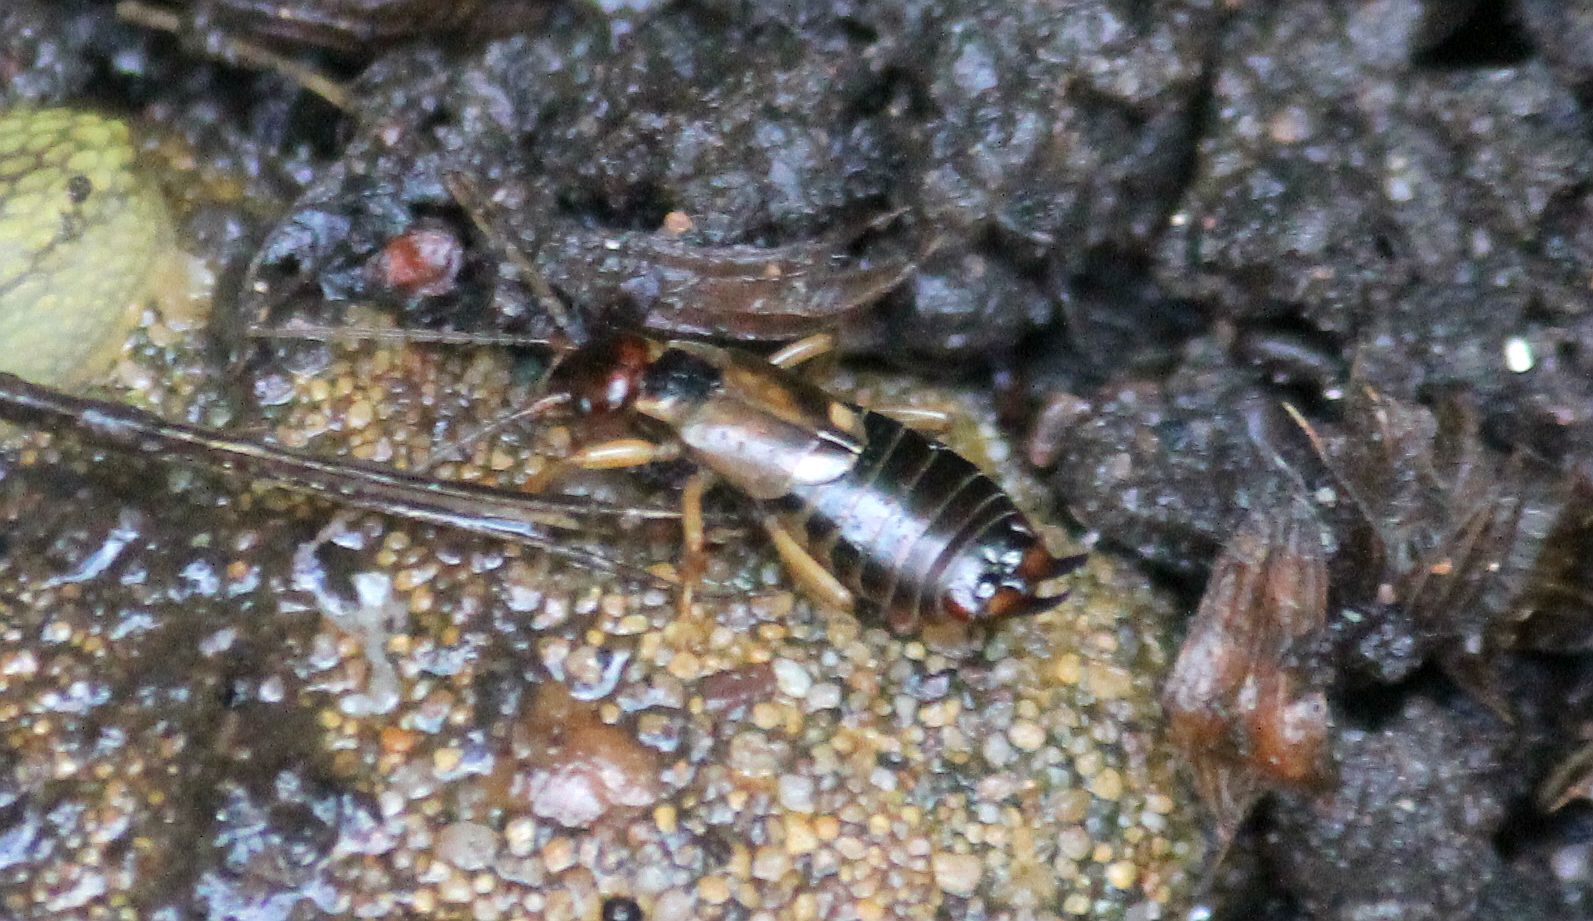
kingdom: Animalia
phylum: Arthropoda
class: Insecta
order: Dermaptera
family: Forficulidae
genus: Forficula
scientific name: Forficula
